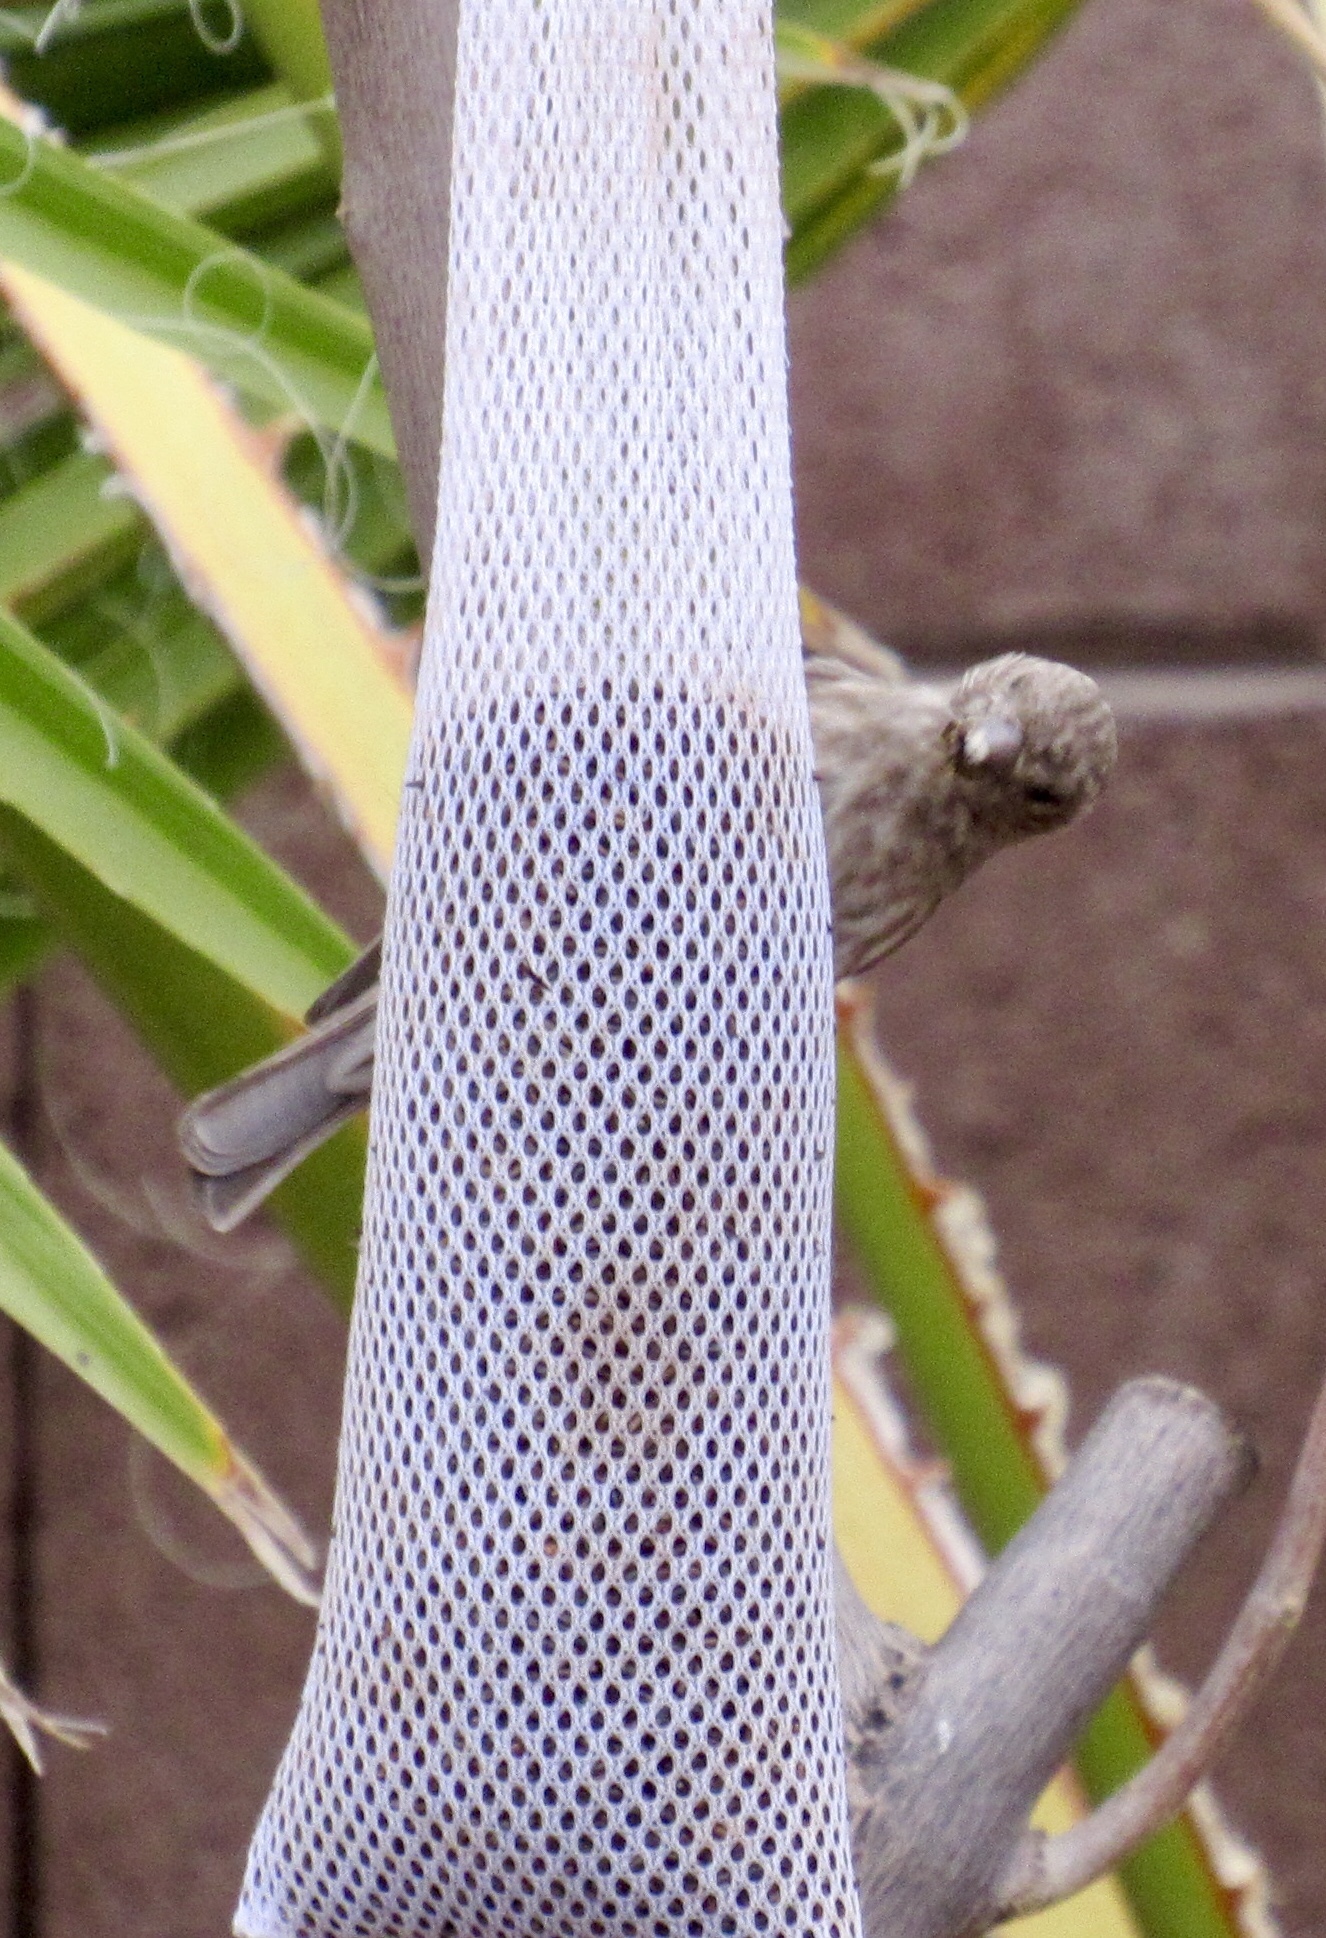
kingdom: Animalia
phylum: Chordata
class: Aves
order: Passeriformes
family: Fringillidae
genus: Haemorhous
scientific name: Haemorhous mexicanus
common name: House finch
